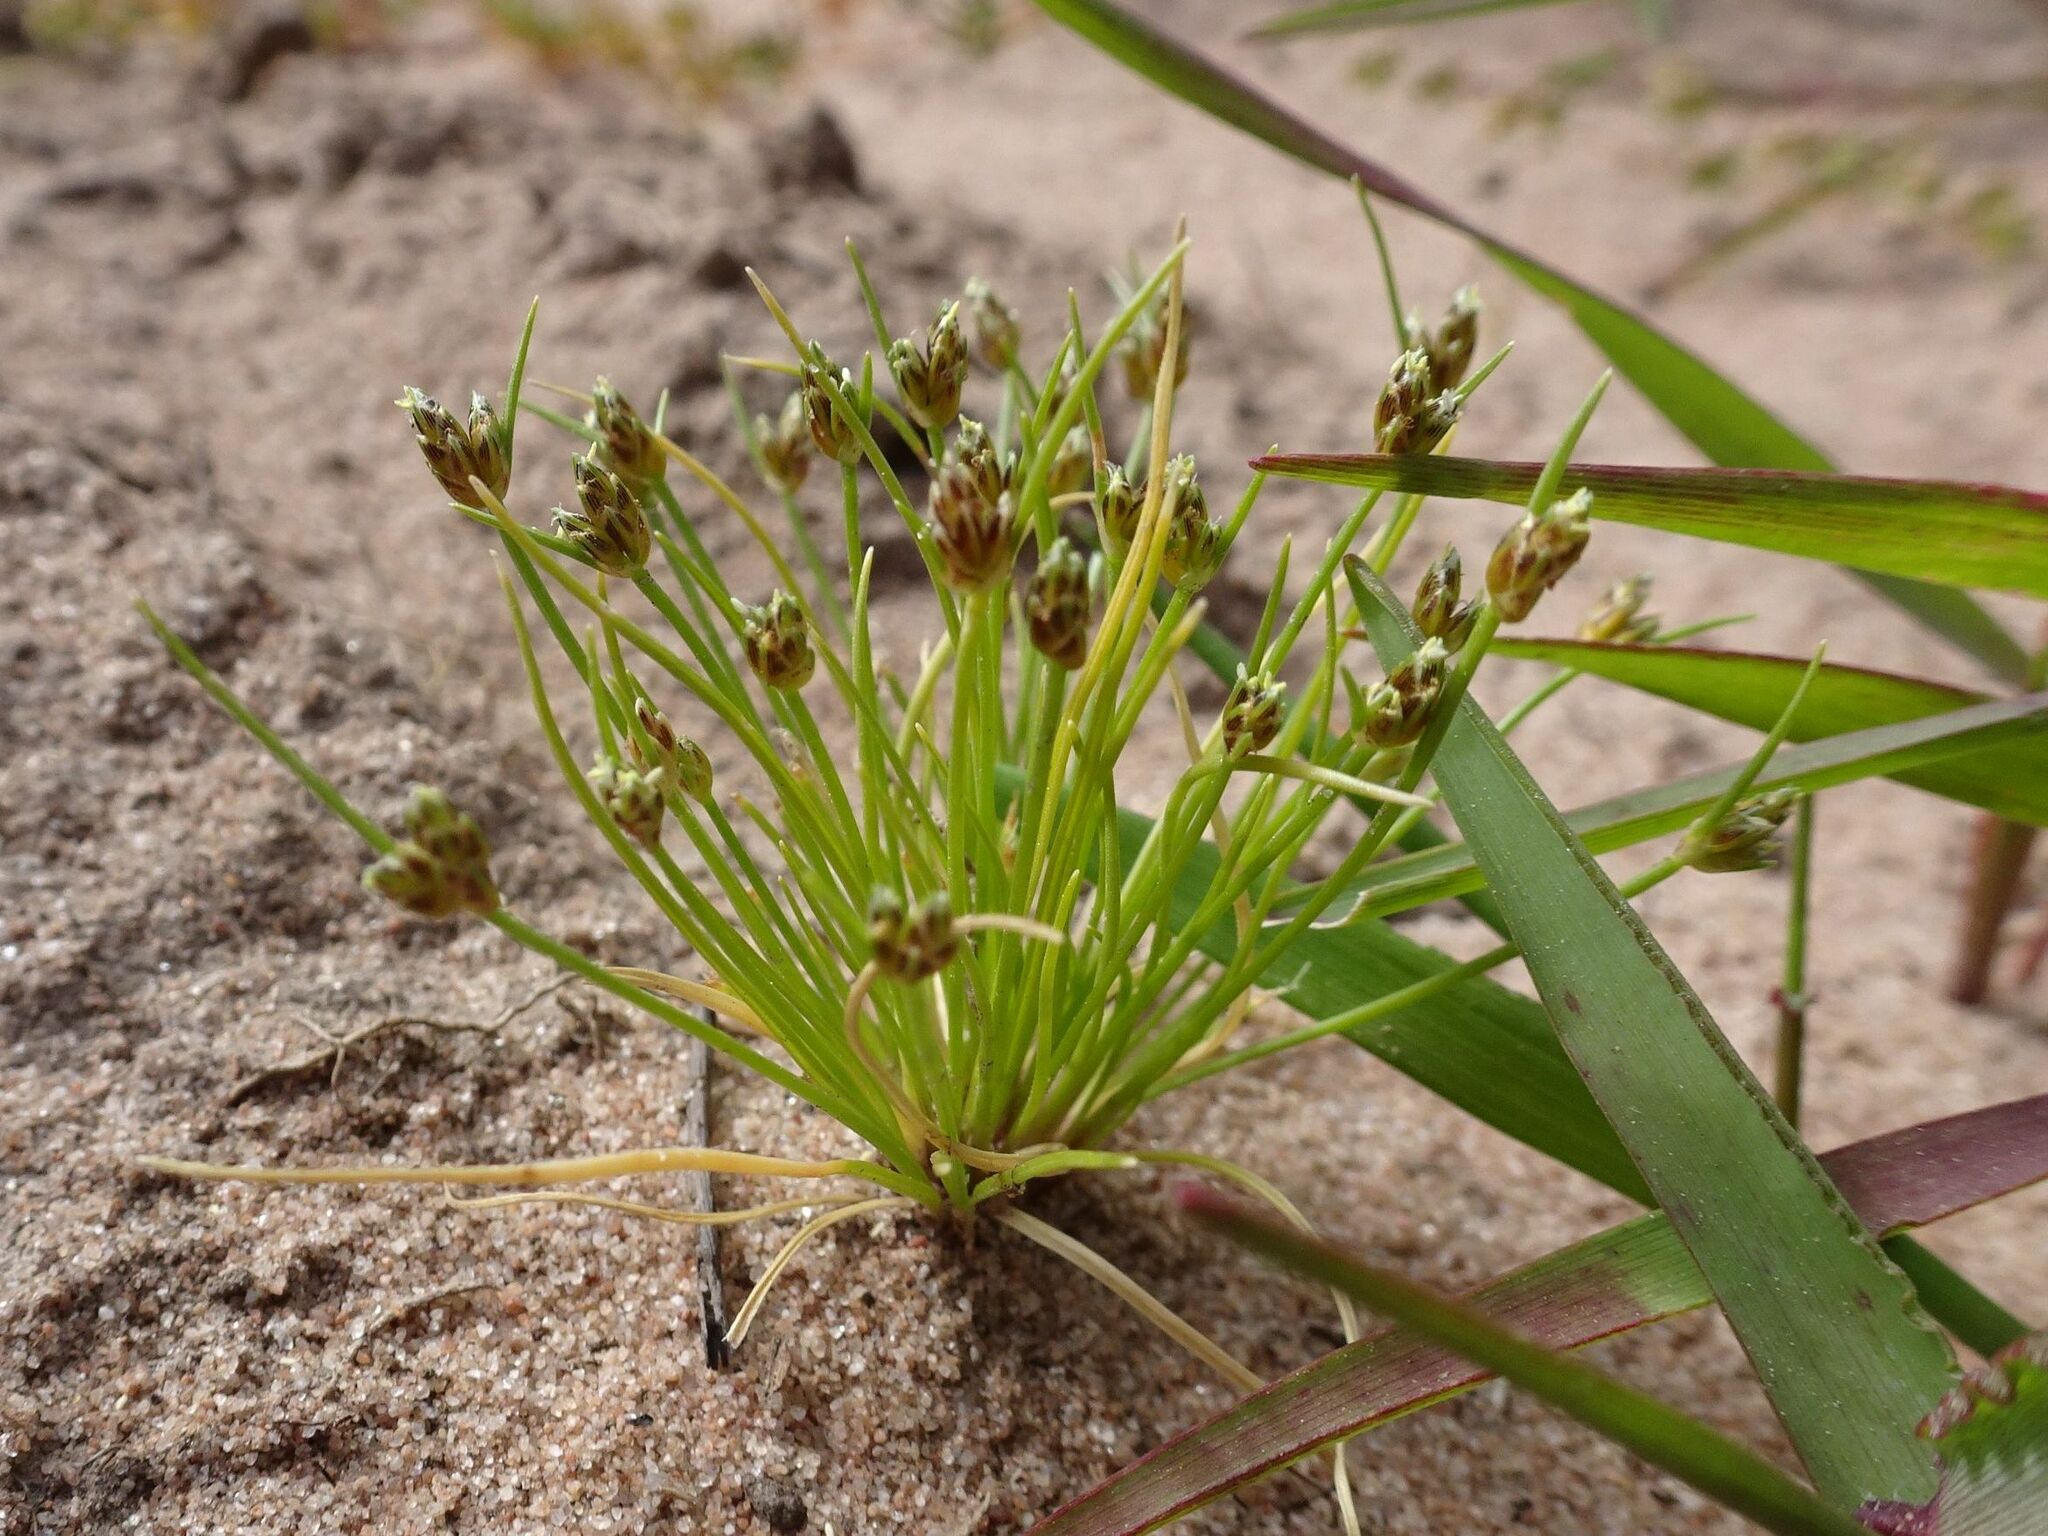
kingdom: Plantae
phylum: Tracheophyta
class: Liliopsida
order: Poales
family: Cyperaceae
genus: Isolepis
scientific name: Isolepis marginata
